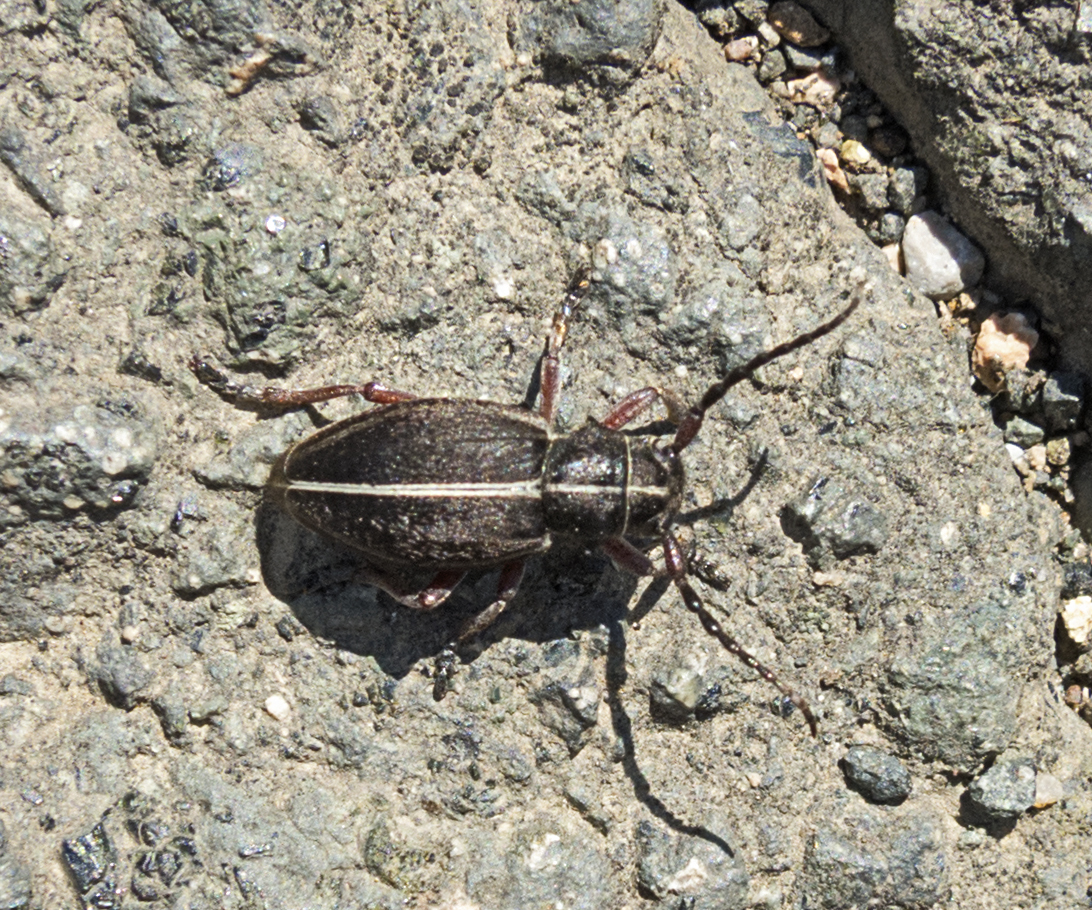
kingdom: Animalia
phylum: Arthropoda
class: Insecta
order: Coleoptera
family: Cerambycidae
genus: Dorcadion
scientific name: Dorcadion tauricum
